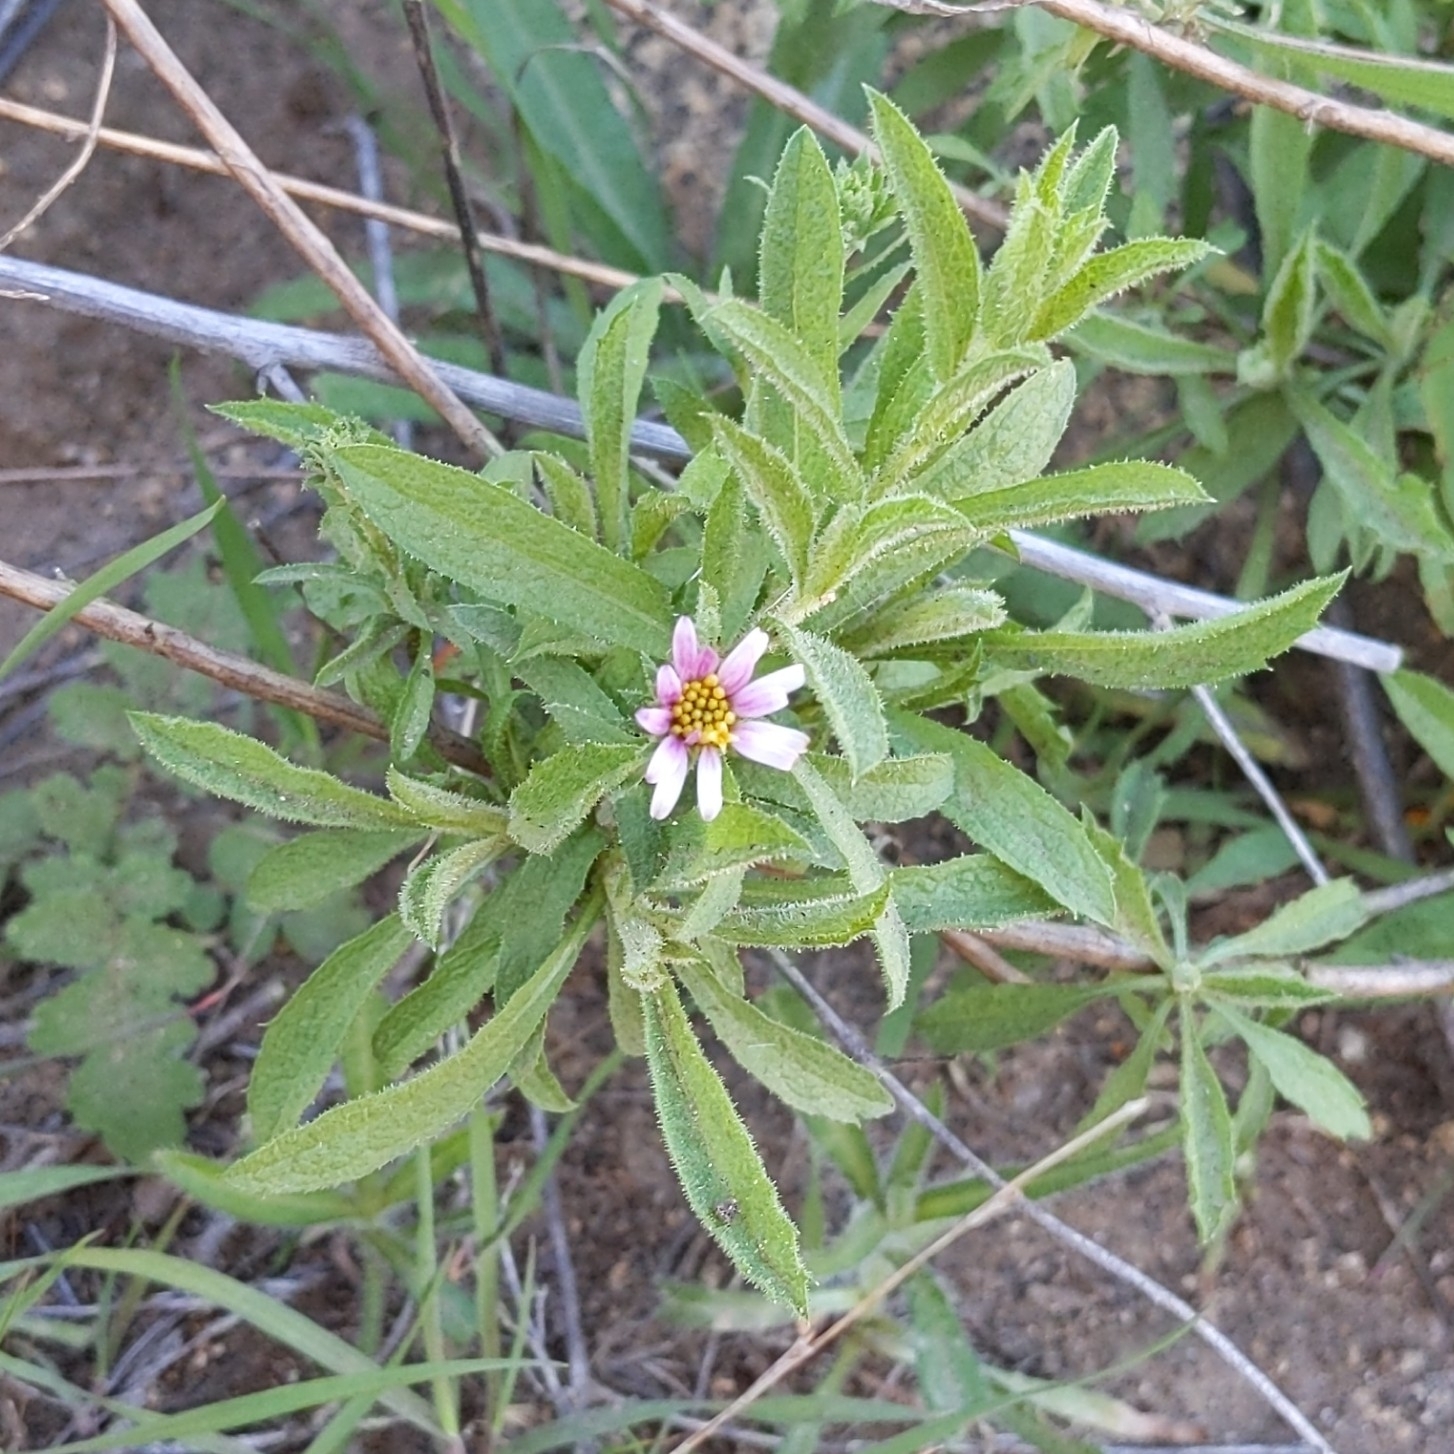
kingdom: Plantae
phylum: Tracheophyta
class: Magnoliopsida
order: Asterales
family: Asteraceae
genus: Corethrogyne
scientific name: Corethrogyne filaginifolia
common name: Sand-aster
